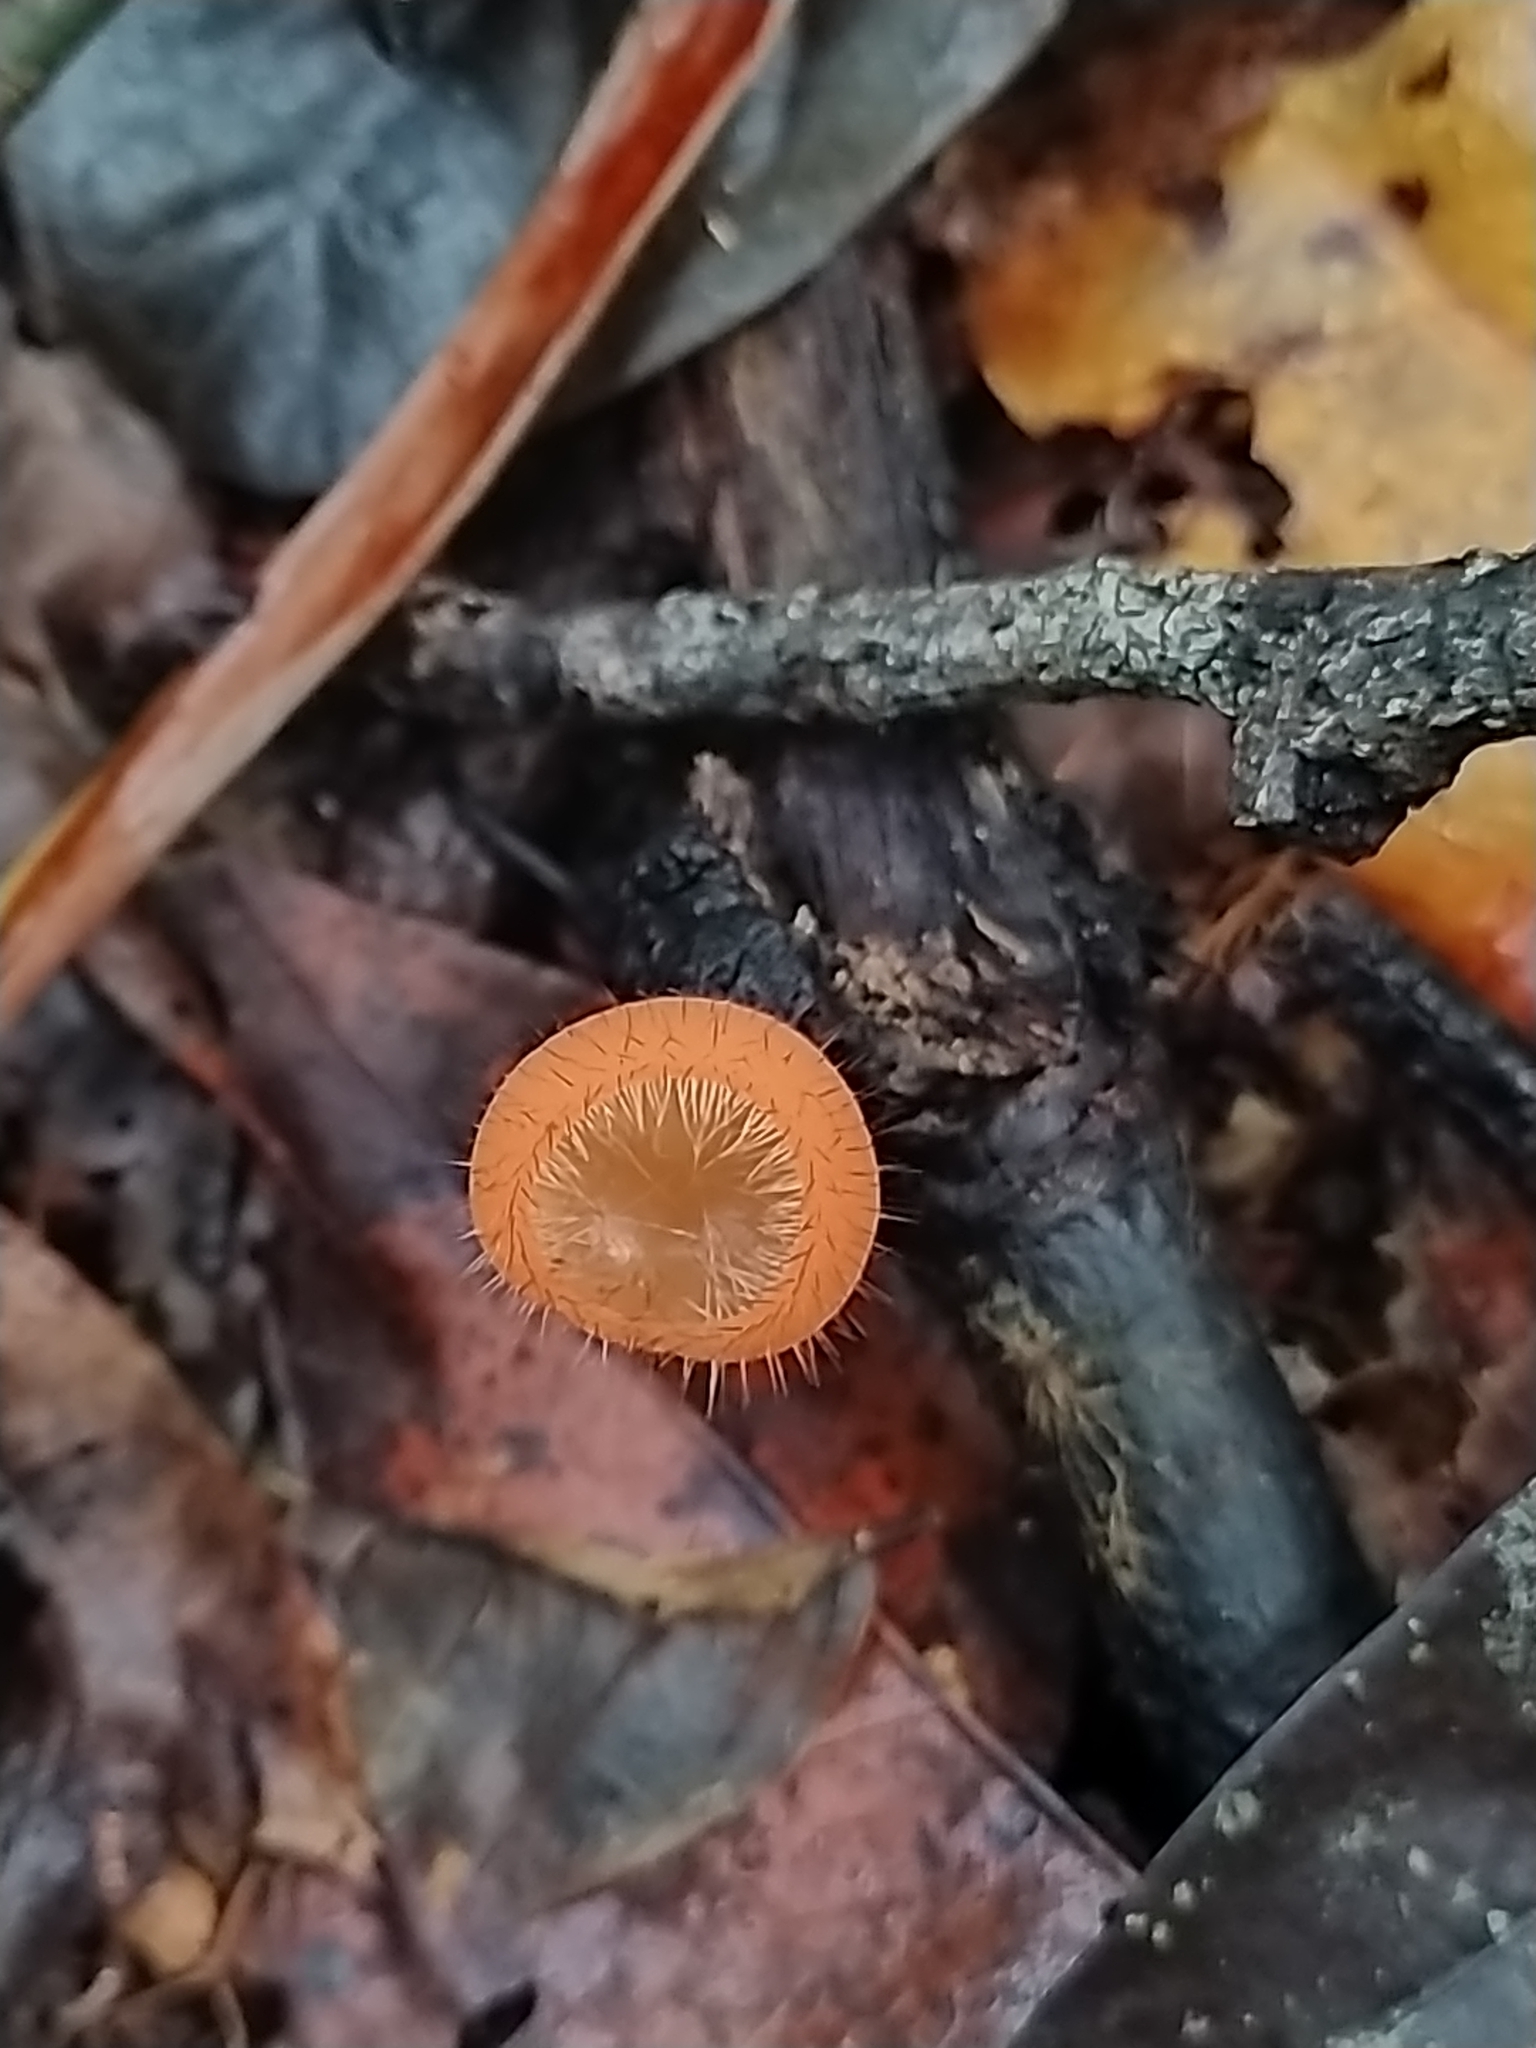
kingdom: Fungi
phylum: Ascomycota
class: Pezizomycetes
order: Pezizales
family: Sarcoscyphaceae
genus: Cookeina
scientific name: Cookeina tricholoma
